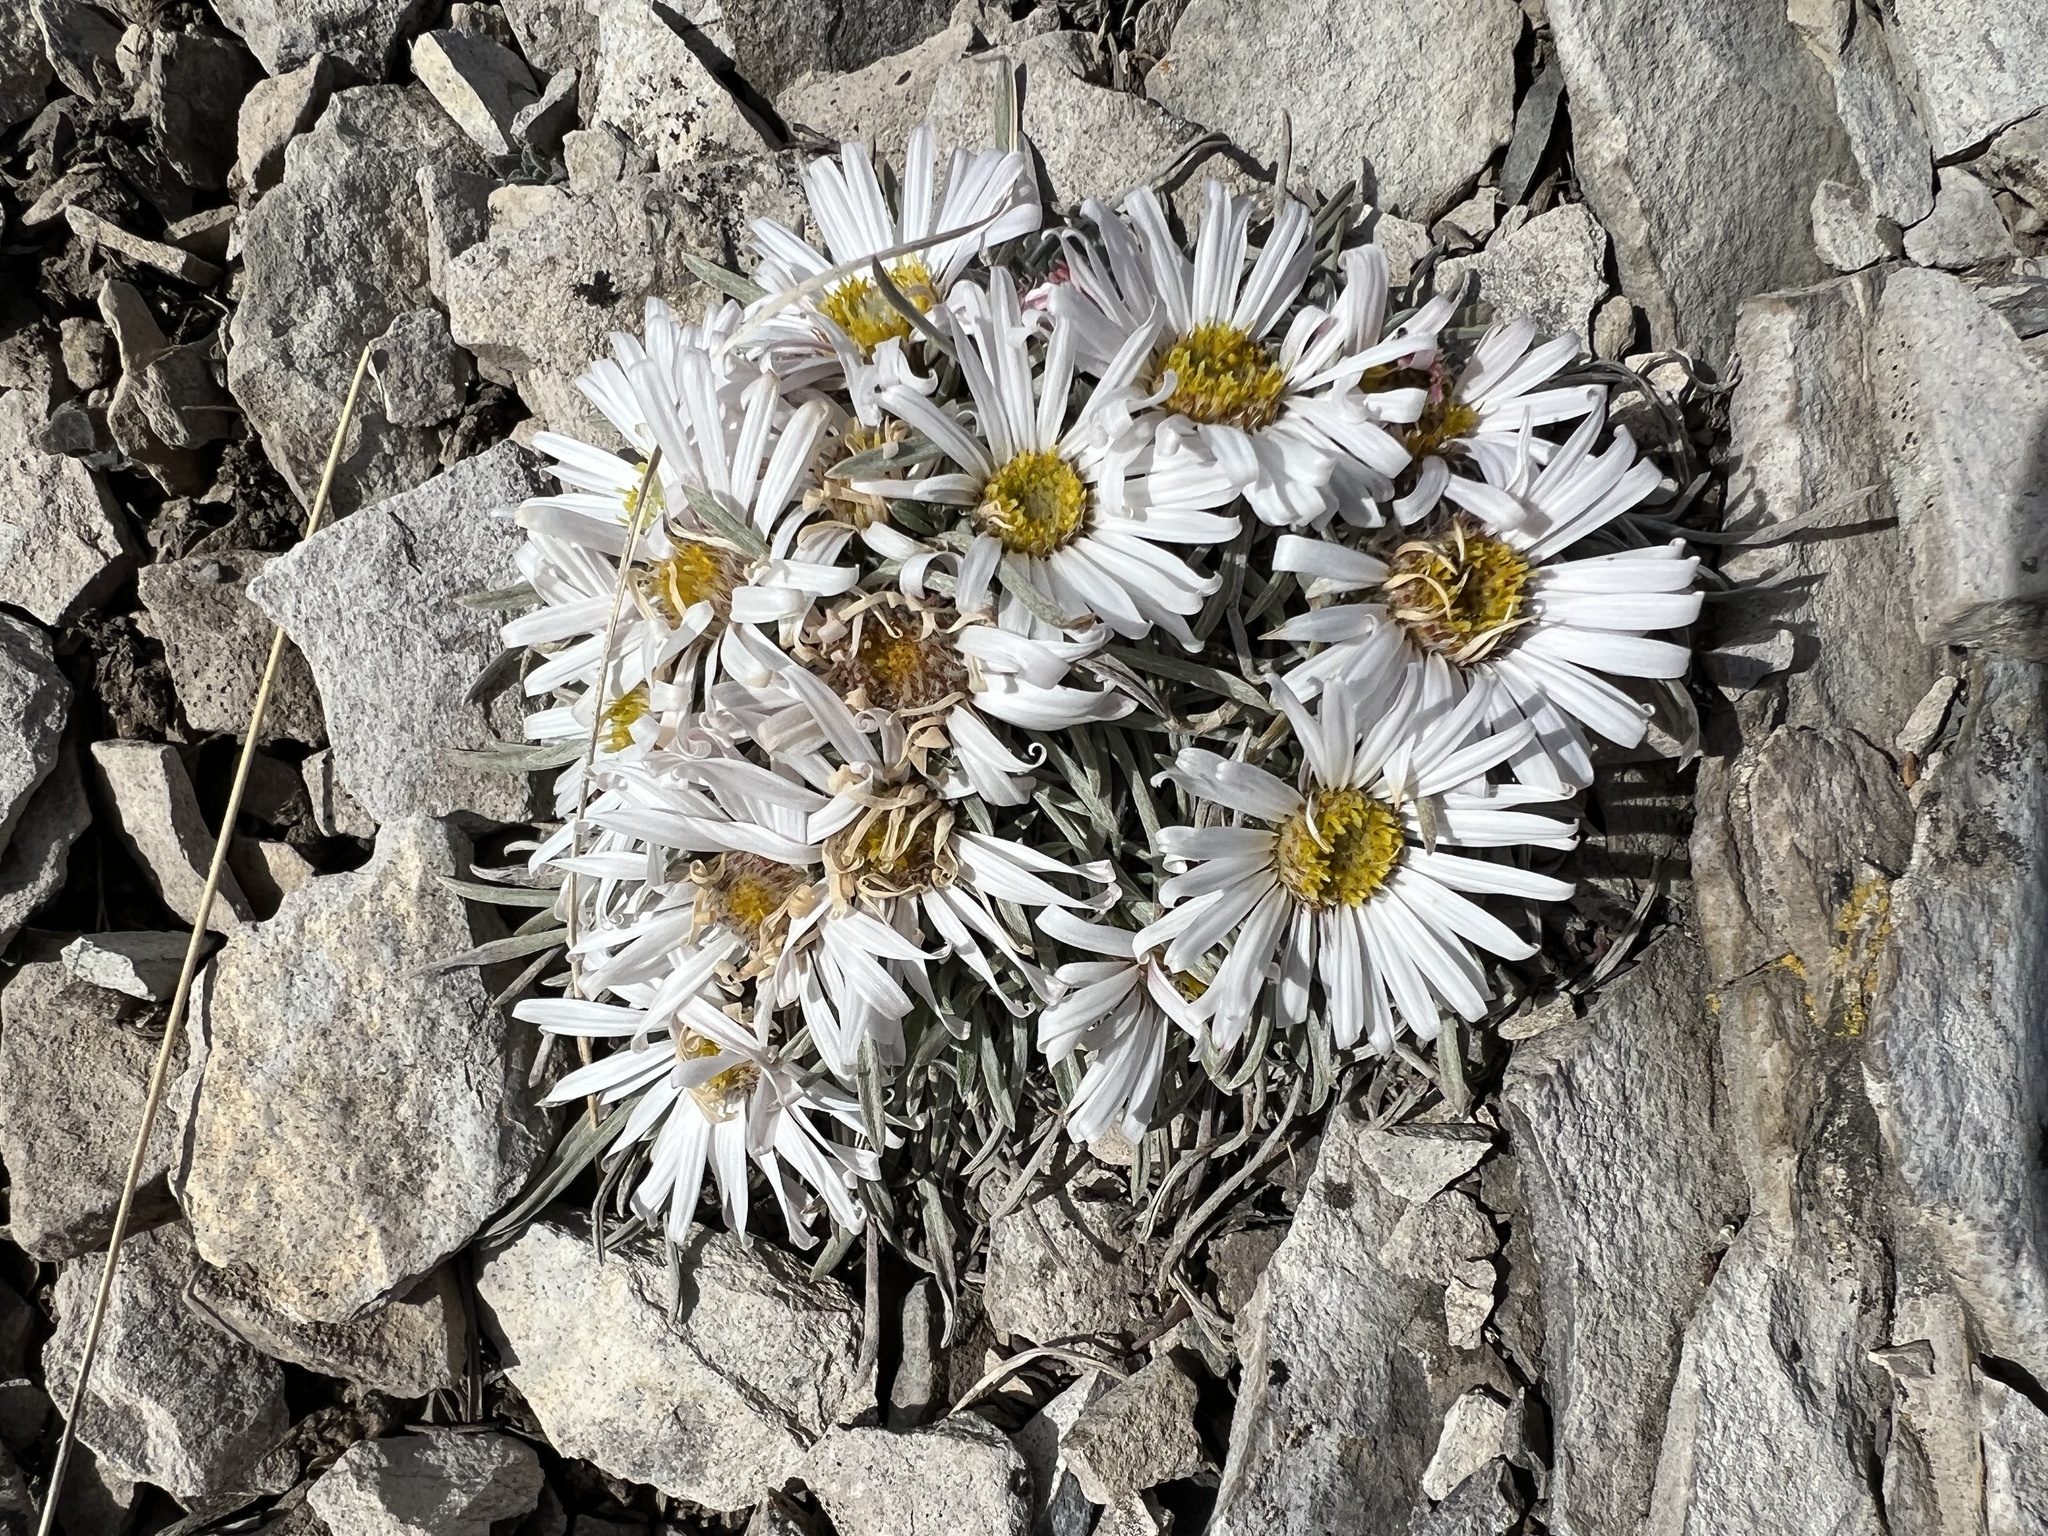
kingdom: Plantae
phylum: Tracheophyta
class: Magnoliopsida
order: Asterales
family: Asteraceae
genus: Townsendia
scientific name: Townsendia hookeri
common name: Hooker's townsend daisy
